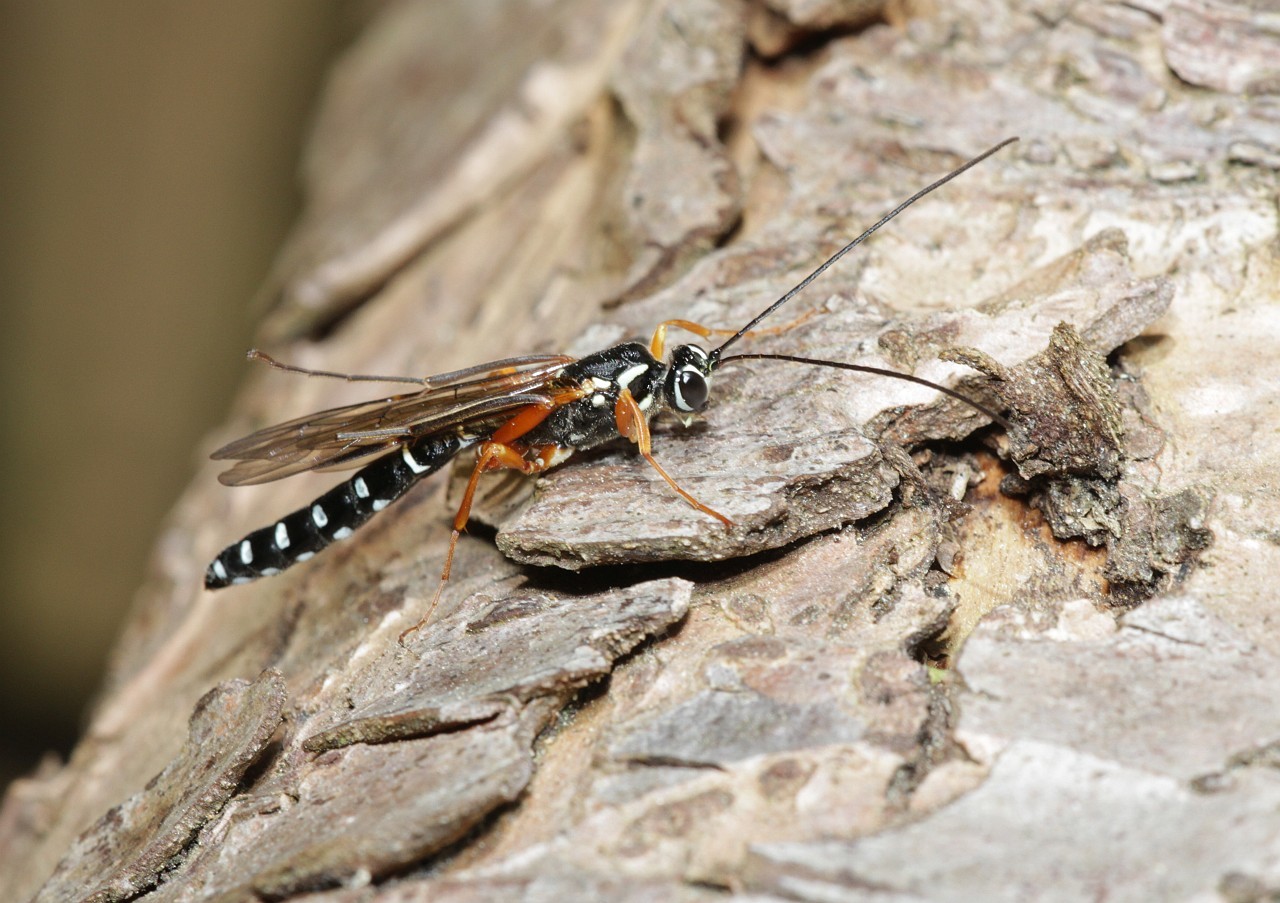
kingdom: Animalia
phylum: Arthropoda
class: Insecta
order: Hymenoptera
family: Ichneumonidae
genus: Rhyssa
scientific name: Rhyssa persuasoria
